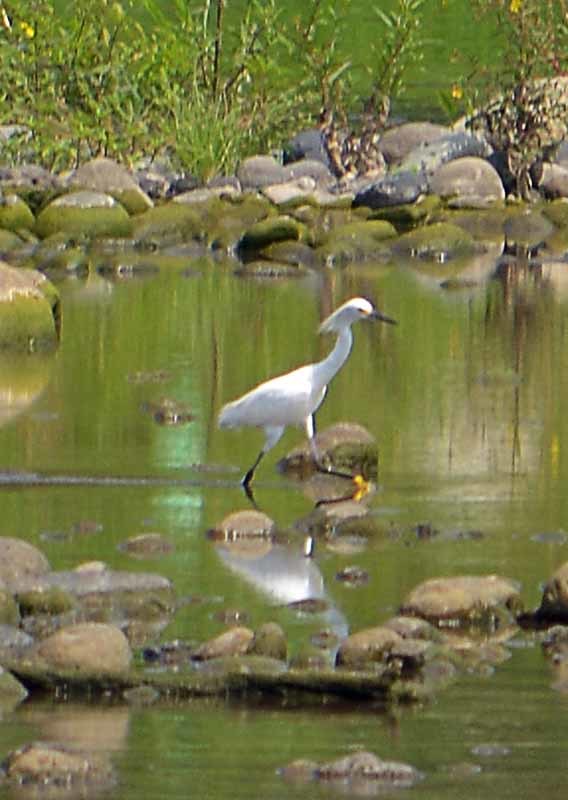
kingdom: Animalia
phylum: Chordata
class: Aves
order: Pelecaniformes
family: Ardeidae
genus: Egretta
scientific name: Egretta thula
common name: Snowy egret
